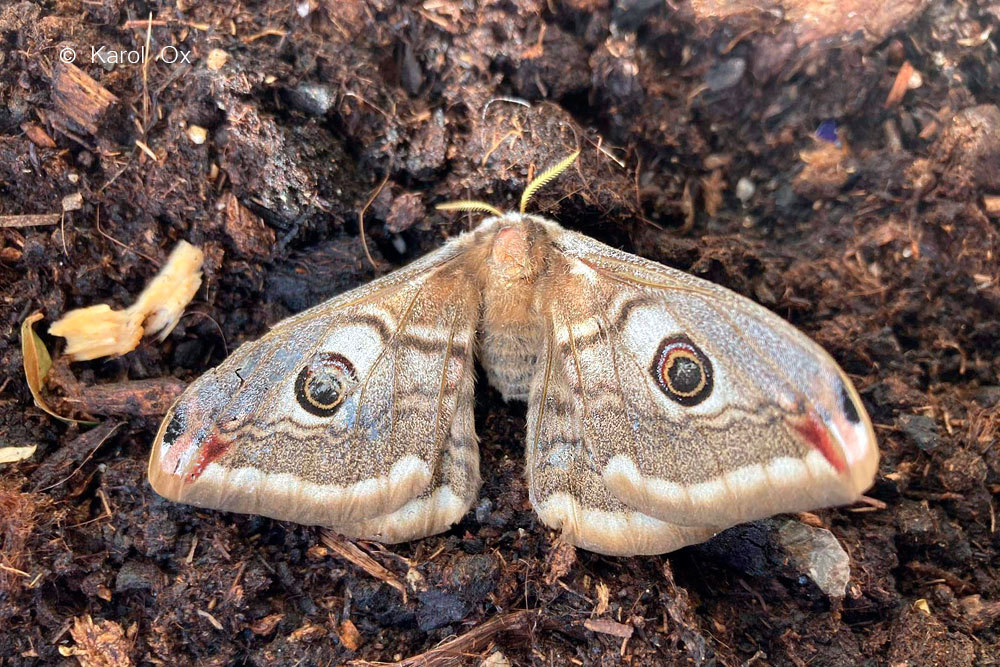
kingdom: Animalia
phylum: Arthropoda
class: Insecta
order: Lepidoptera
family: Saturniidae
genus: Saturnia
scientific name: Saturnia pavonia
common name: Emperor moth
